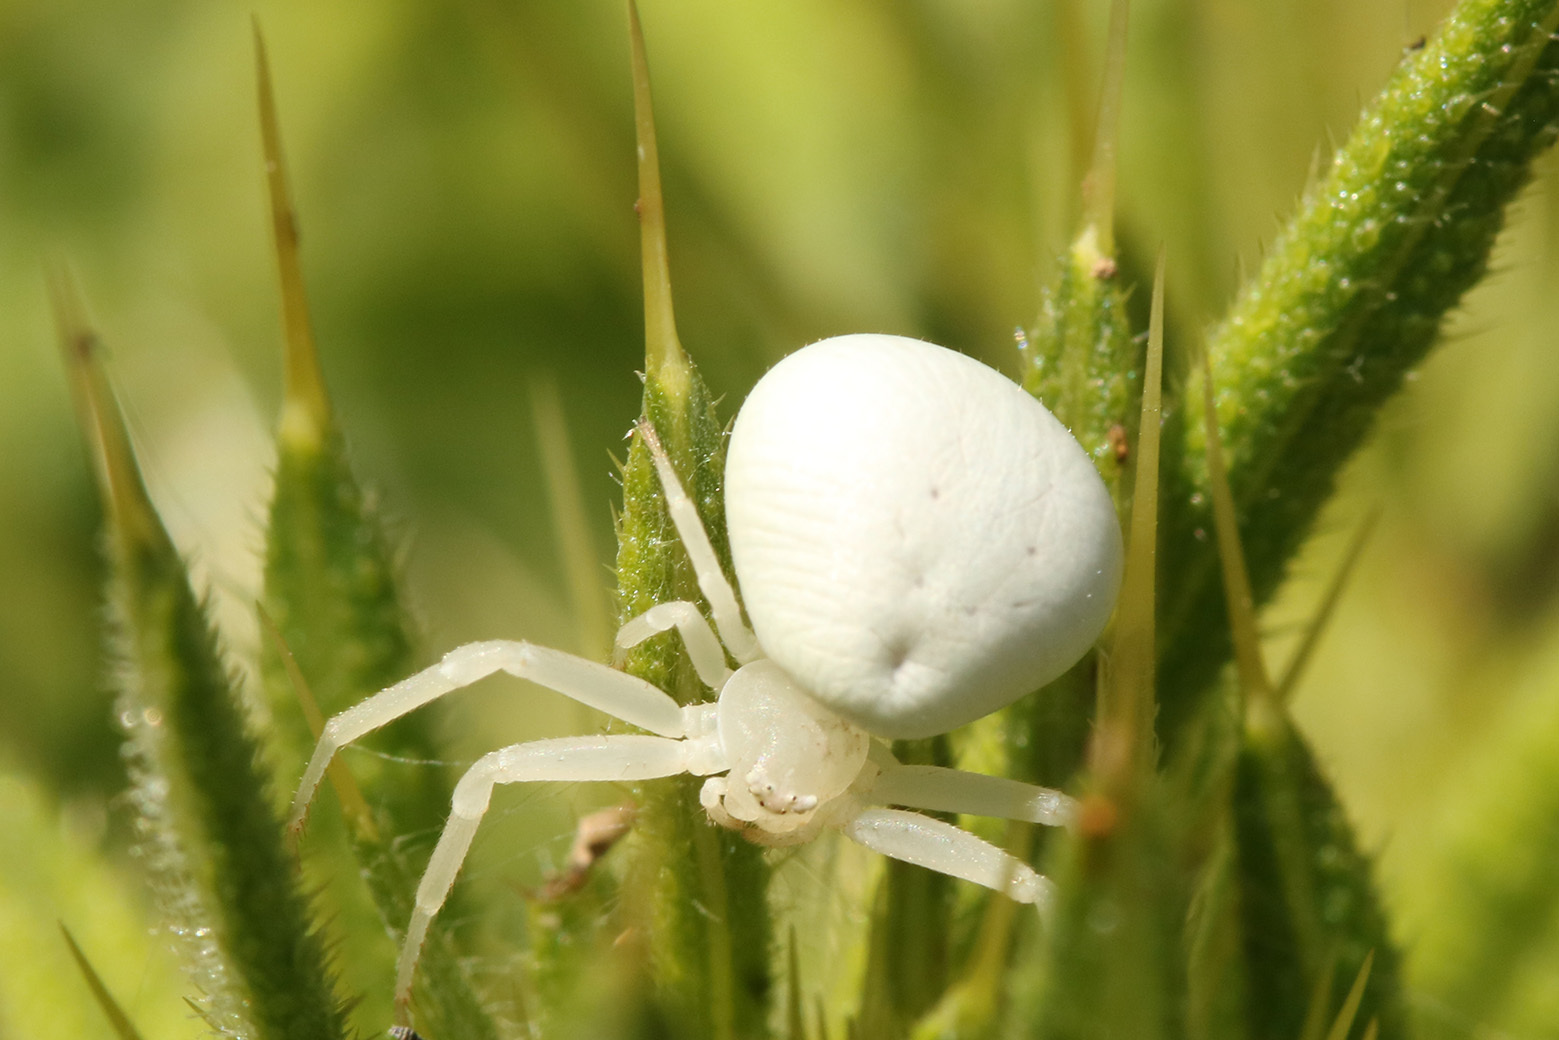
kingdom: Animalia
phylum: Arthropoda
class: Arachnida
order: Araneae
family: Thomisidae
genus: Misumenops
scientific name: Misumenops
